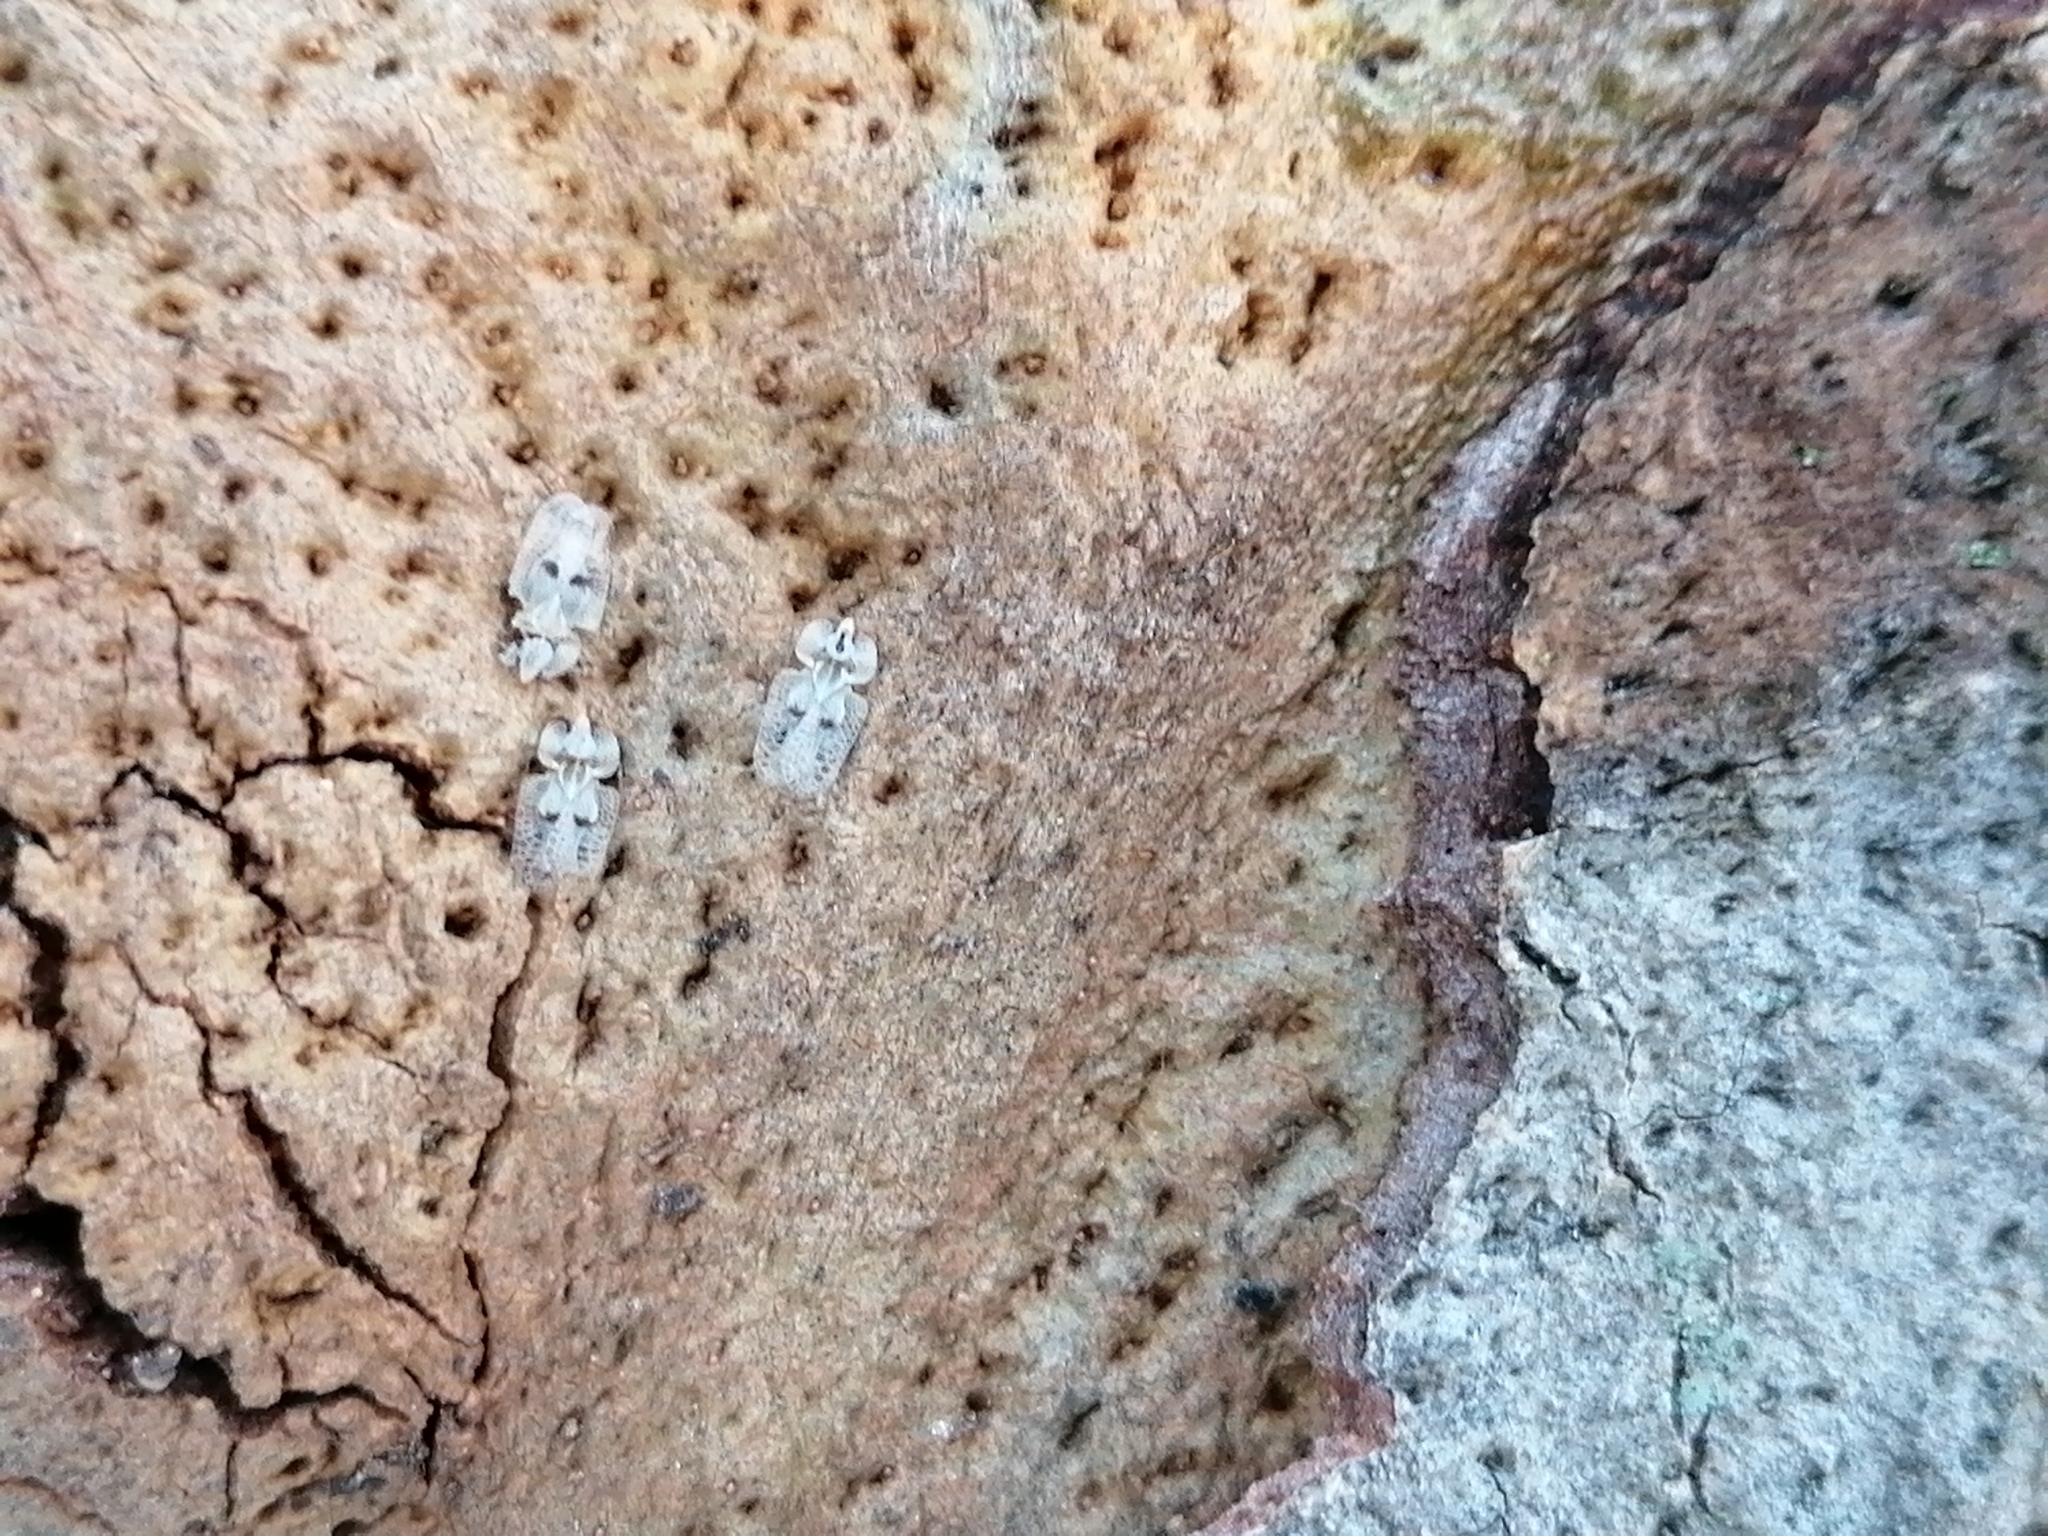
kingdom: Animalia
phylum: Arthropoda
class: Insecta
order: Hemiptera
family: Tingidae
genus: Corythucha
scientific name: Corythucha ciliata
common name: Sycamore lace bug
